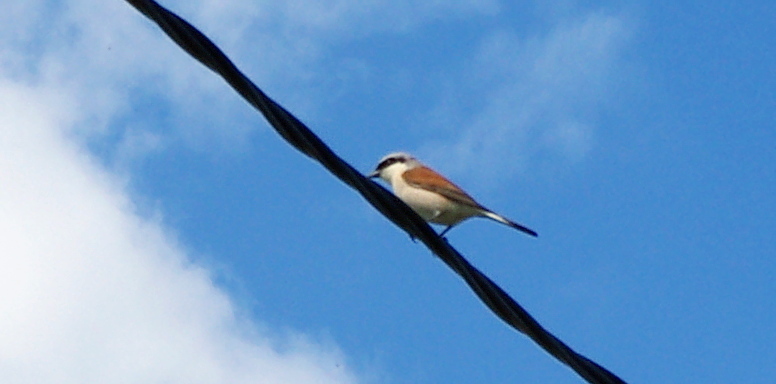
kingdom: Animalia
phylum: Chordata
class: Aves
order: Passeriformes
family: Laniidae
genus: Lanius
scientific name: Lanius collurio
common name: Red-backed shrike
